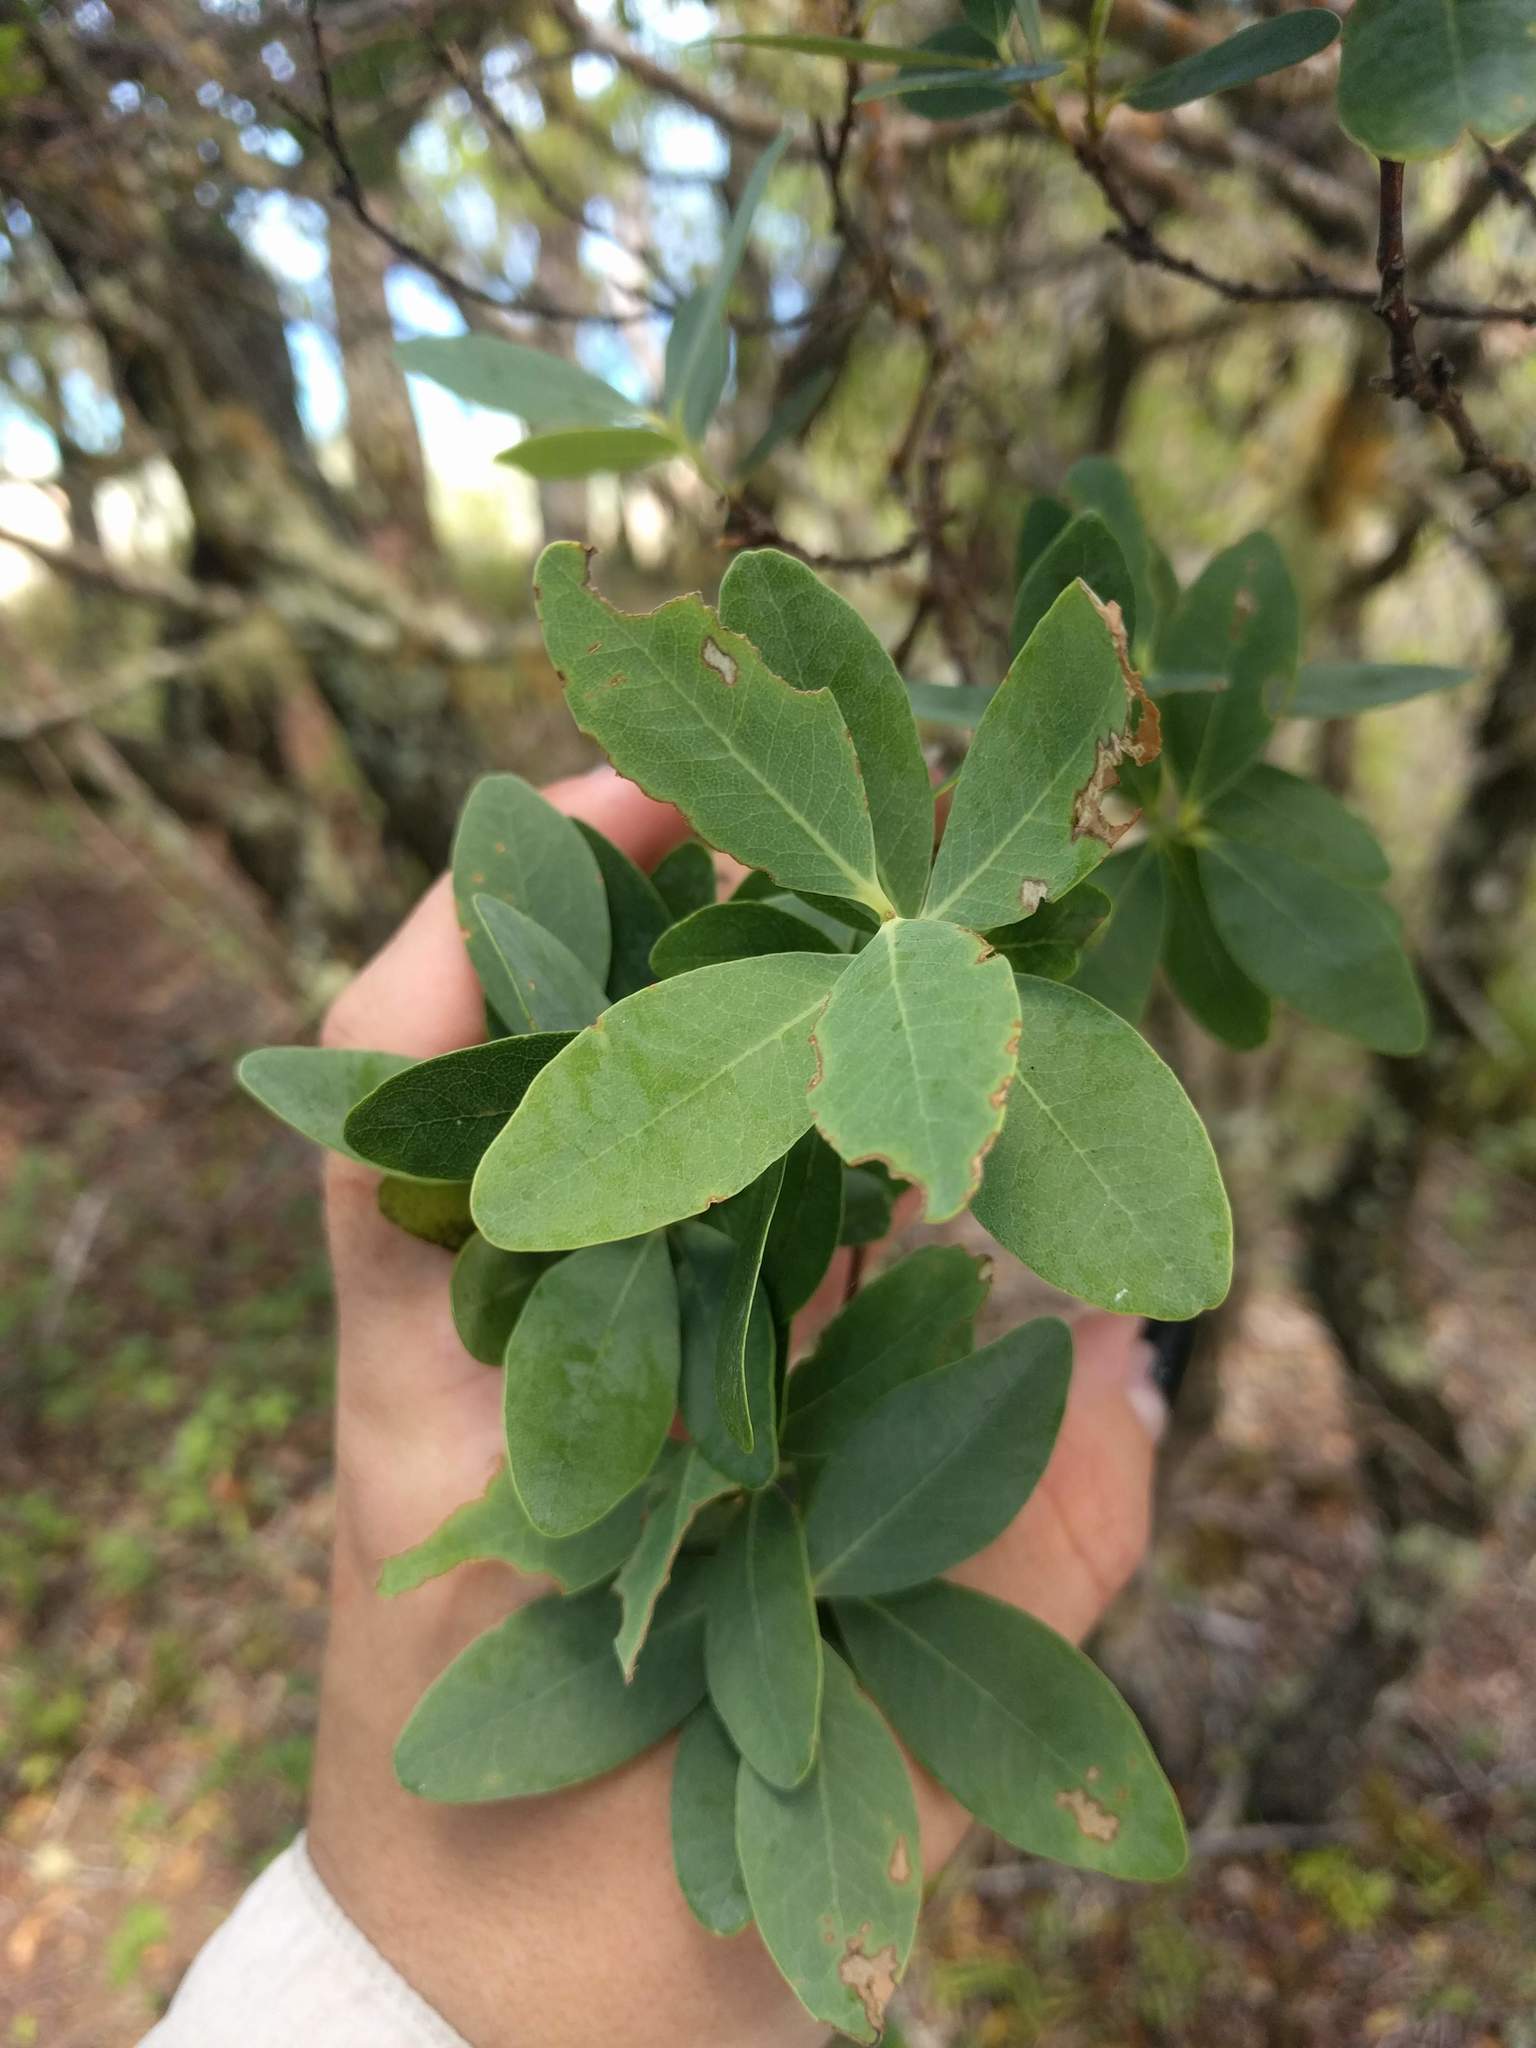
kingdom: Plantae
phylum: Tracheophyta
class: Magnoliopsida
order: Malvales
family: Thymelaeaceae
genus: Wikstroemia
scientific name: Wikstroemia oahuensis
